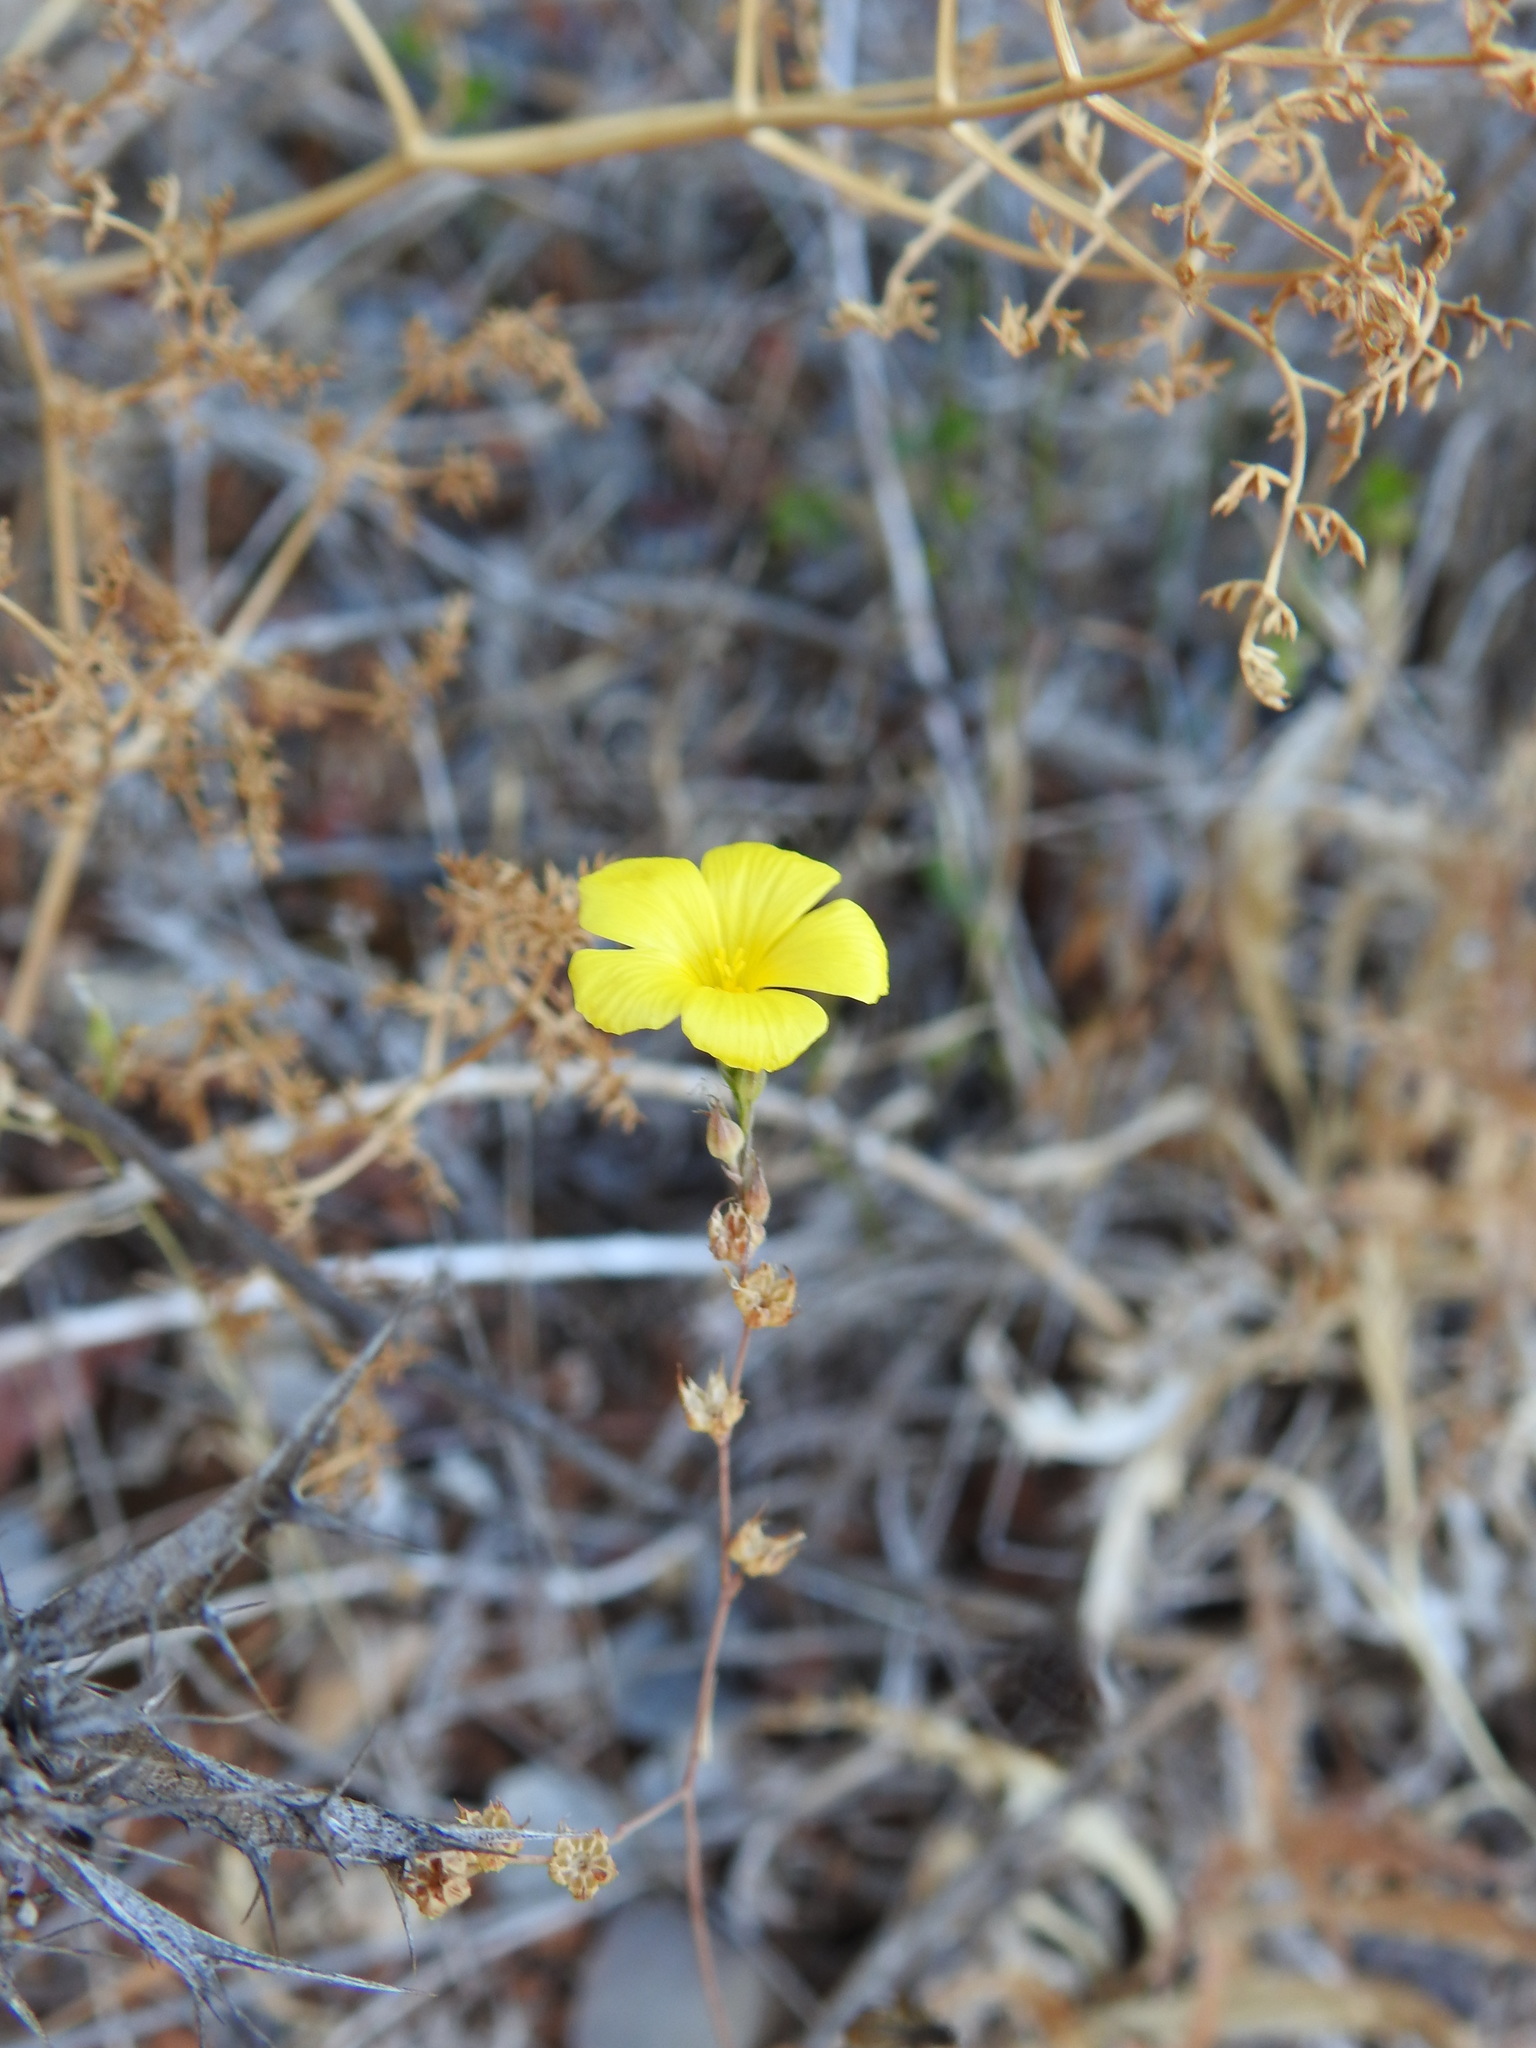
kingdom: Plantae
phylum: Tracheophyta
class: Magnoliopsida
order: Malpighiales
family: Linaceae
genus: Linum
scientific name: Linum tenue
